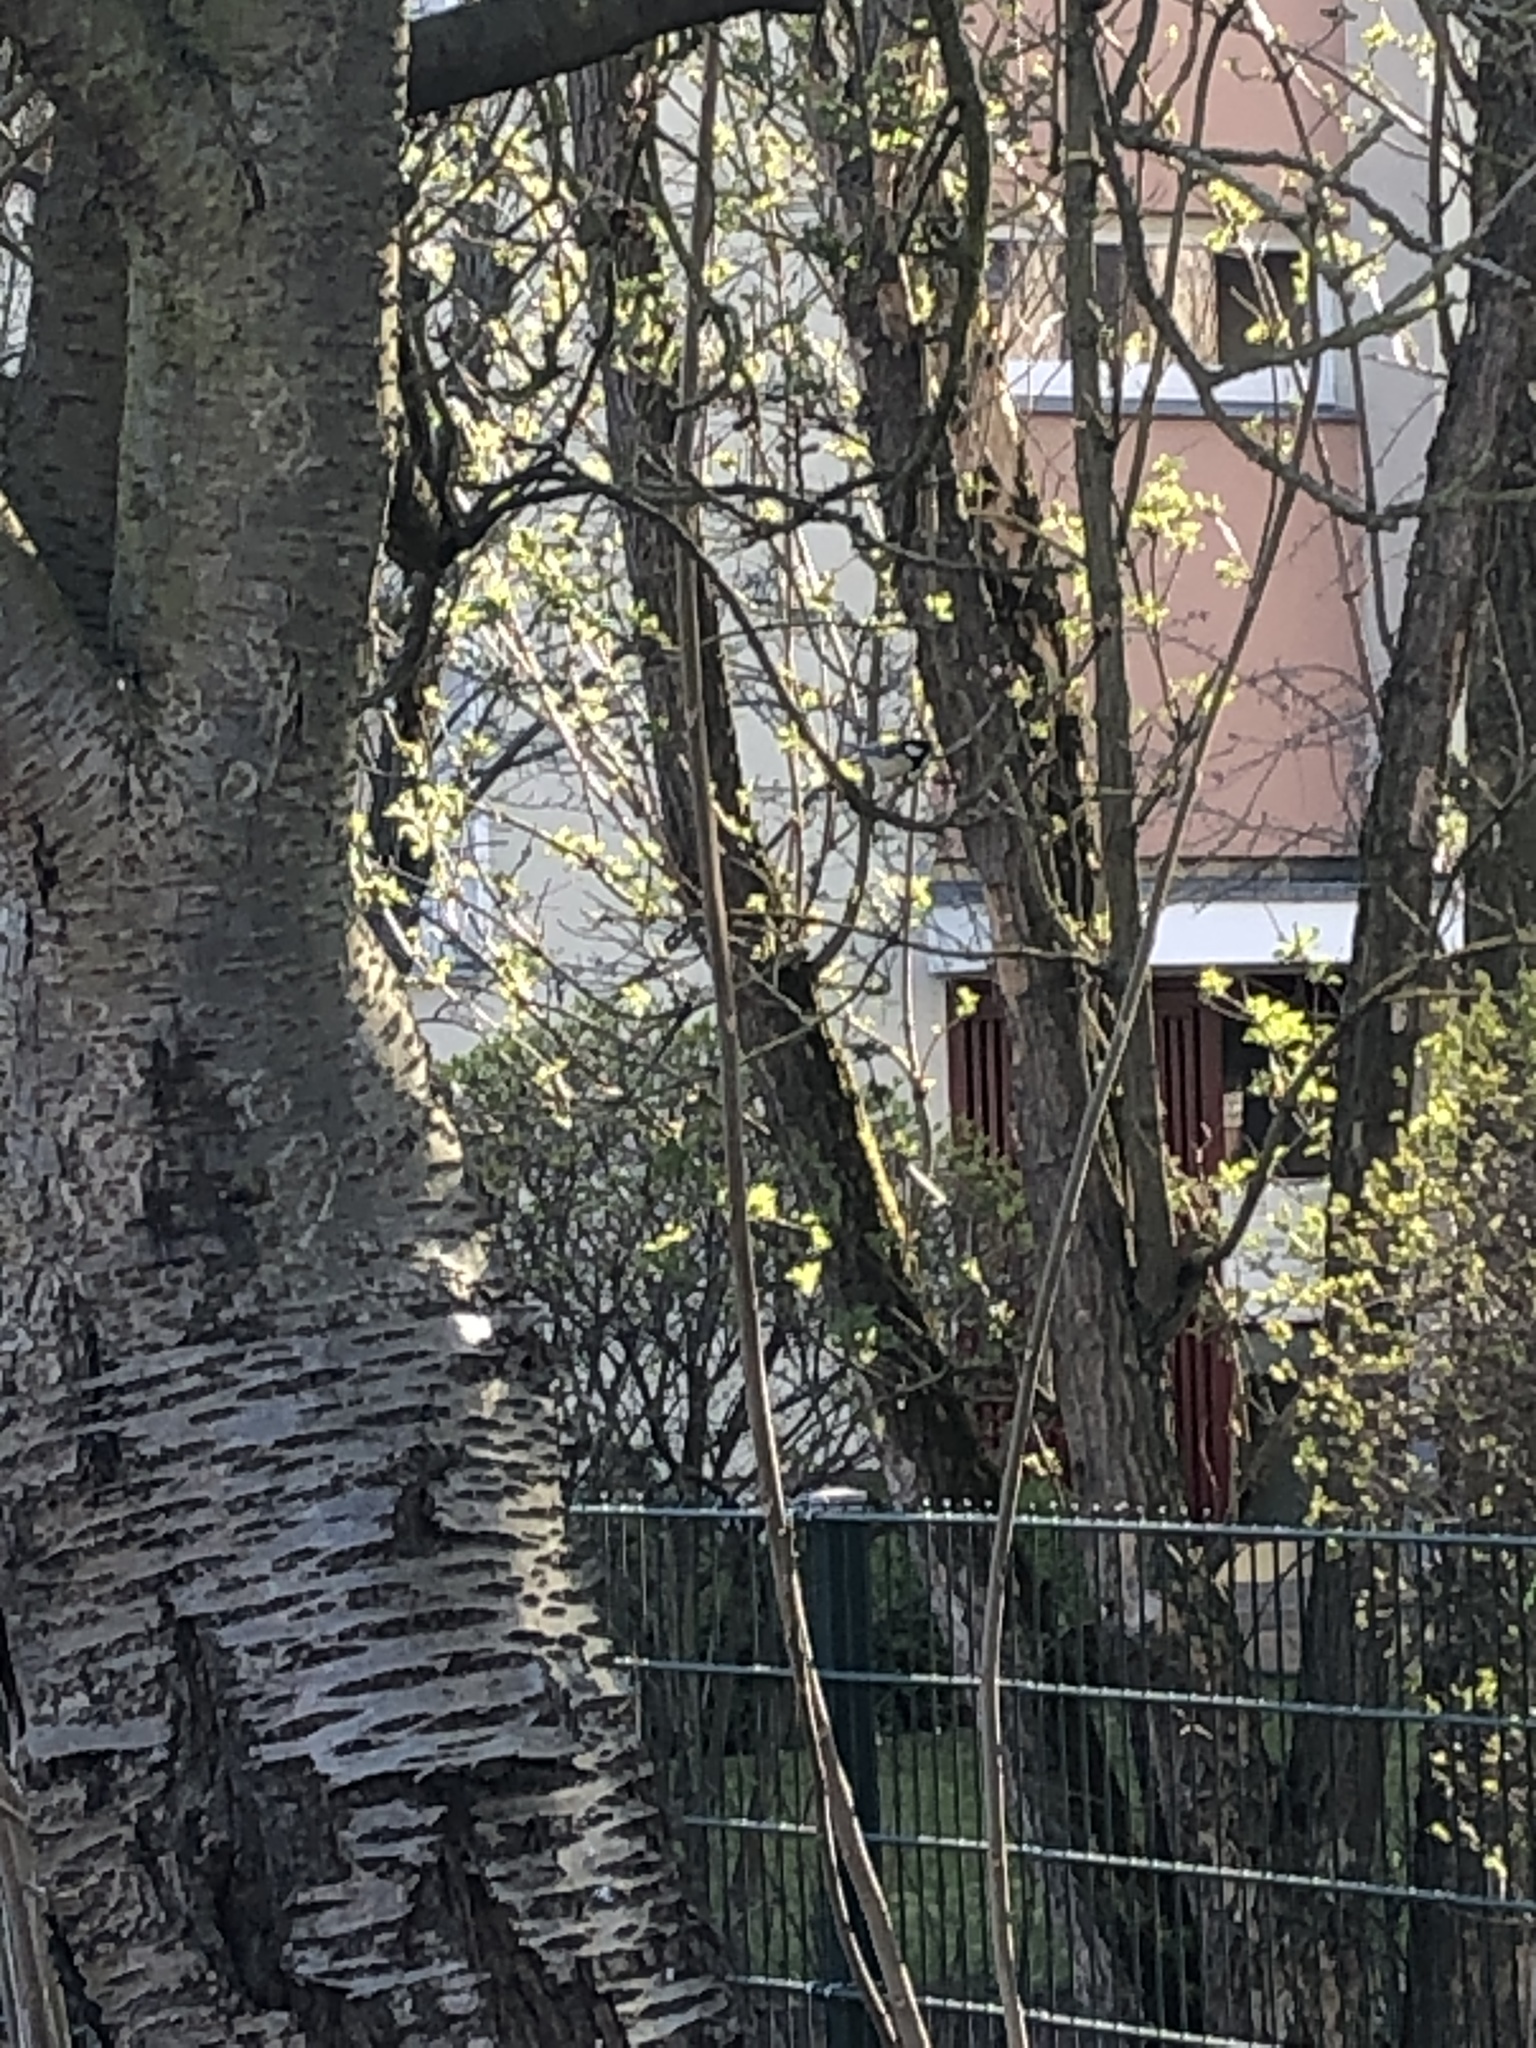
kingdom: Animalia
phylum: Chordata
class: Aves
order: Passeriformes
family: Paridae
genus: Parus
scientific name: Parus major
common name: Great tit
